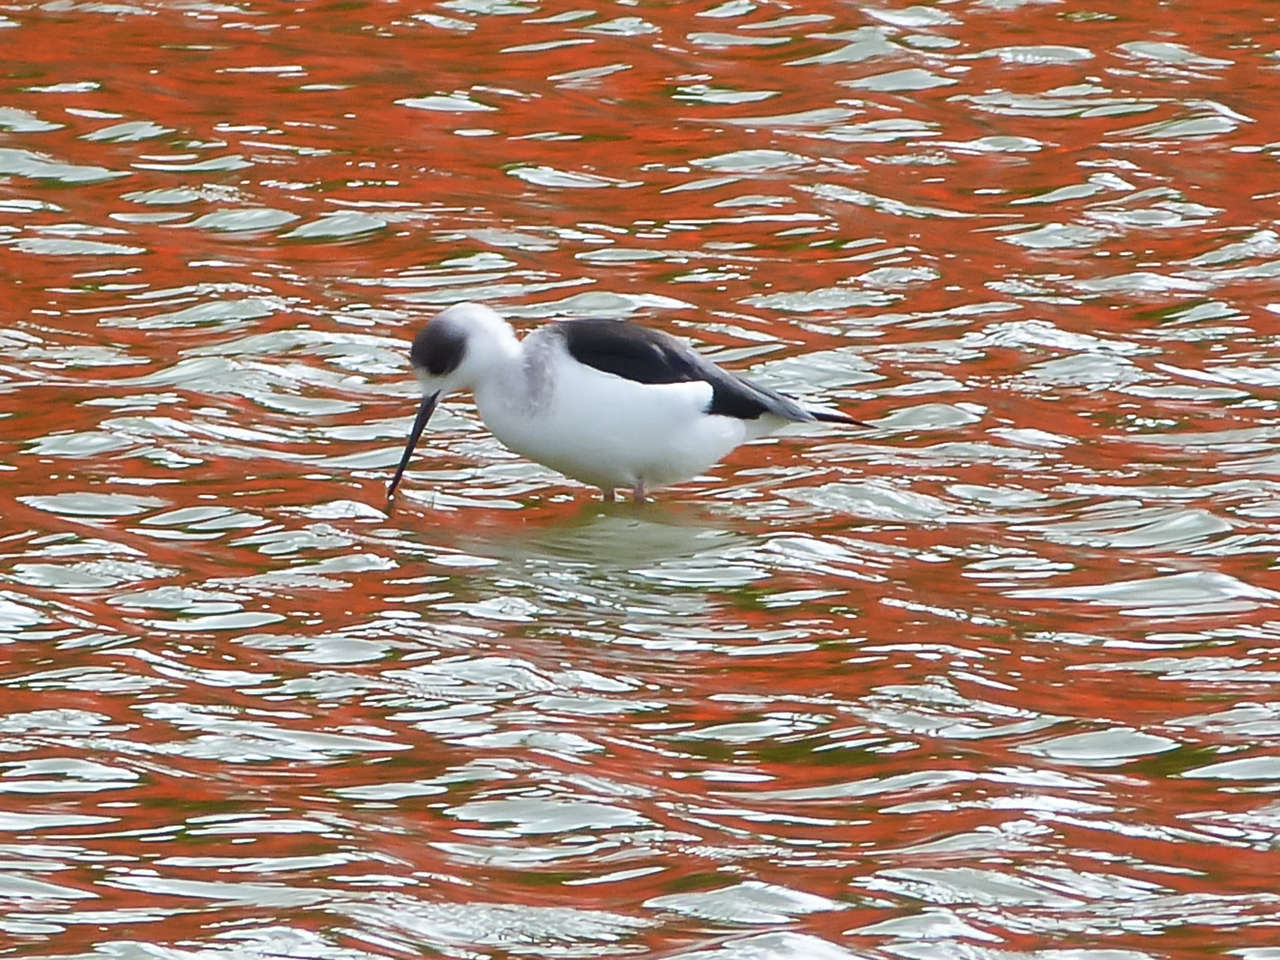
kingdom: Animalia
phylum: Chordata
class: Aves
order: Charadriiformes
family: Recurvirostridae
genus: Himantopus
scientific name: Himantopus leucocephalus
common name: White-headed stilt
